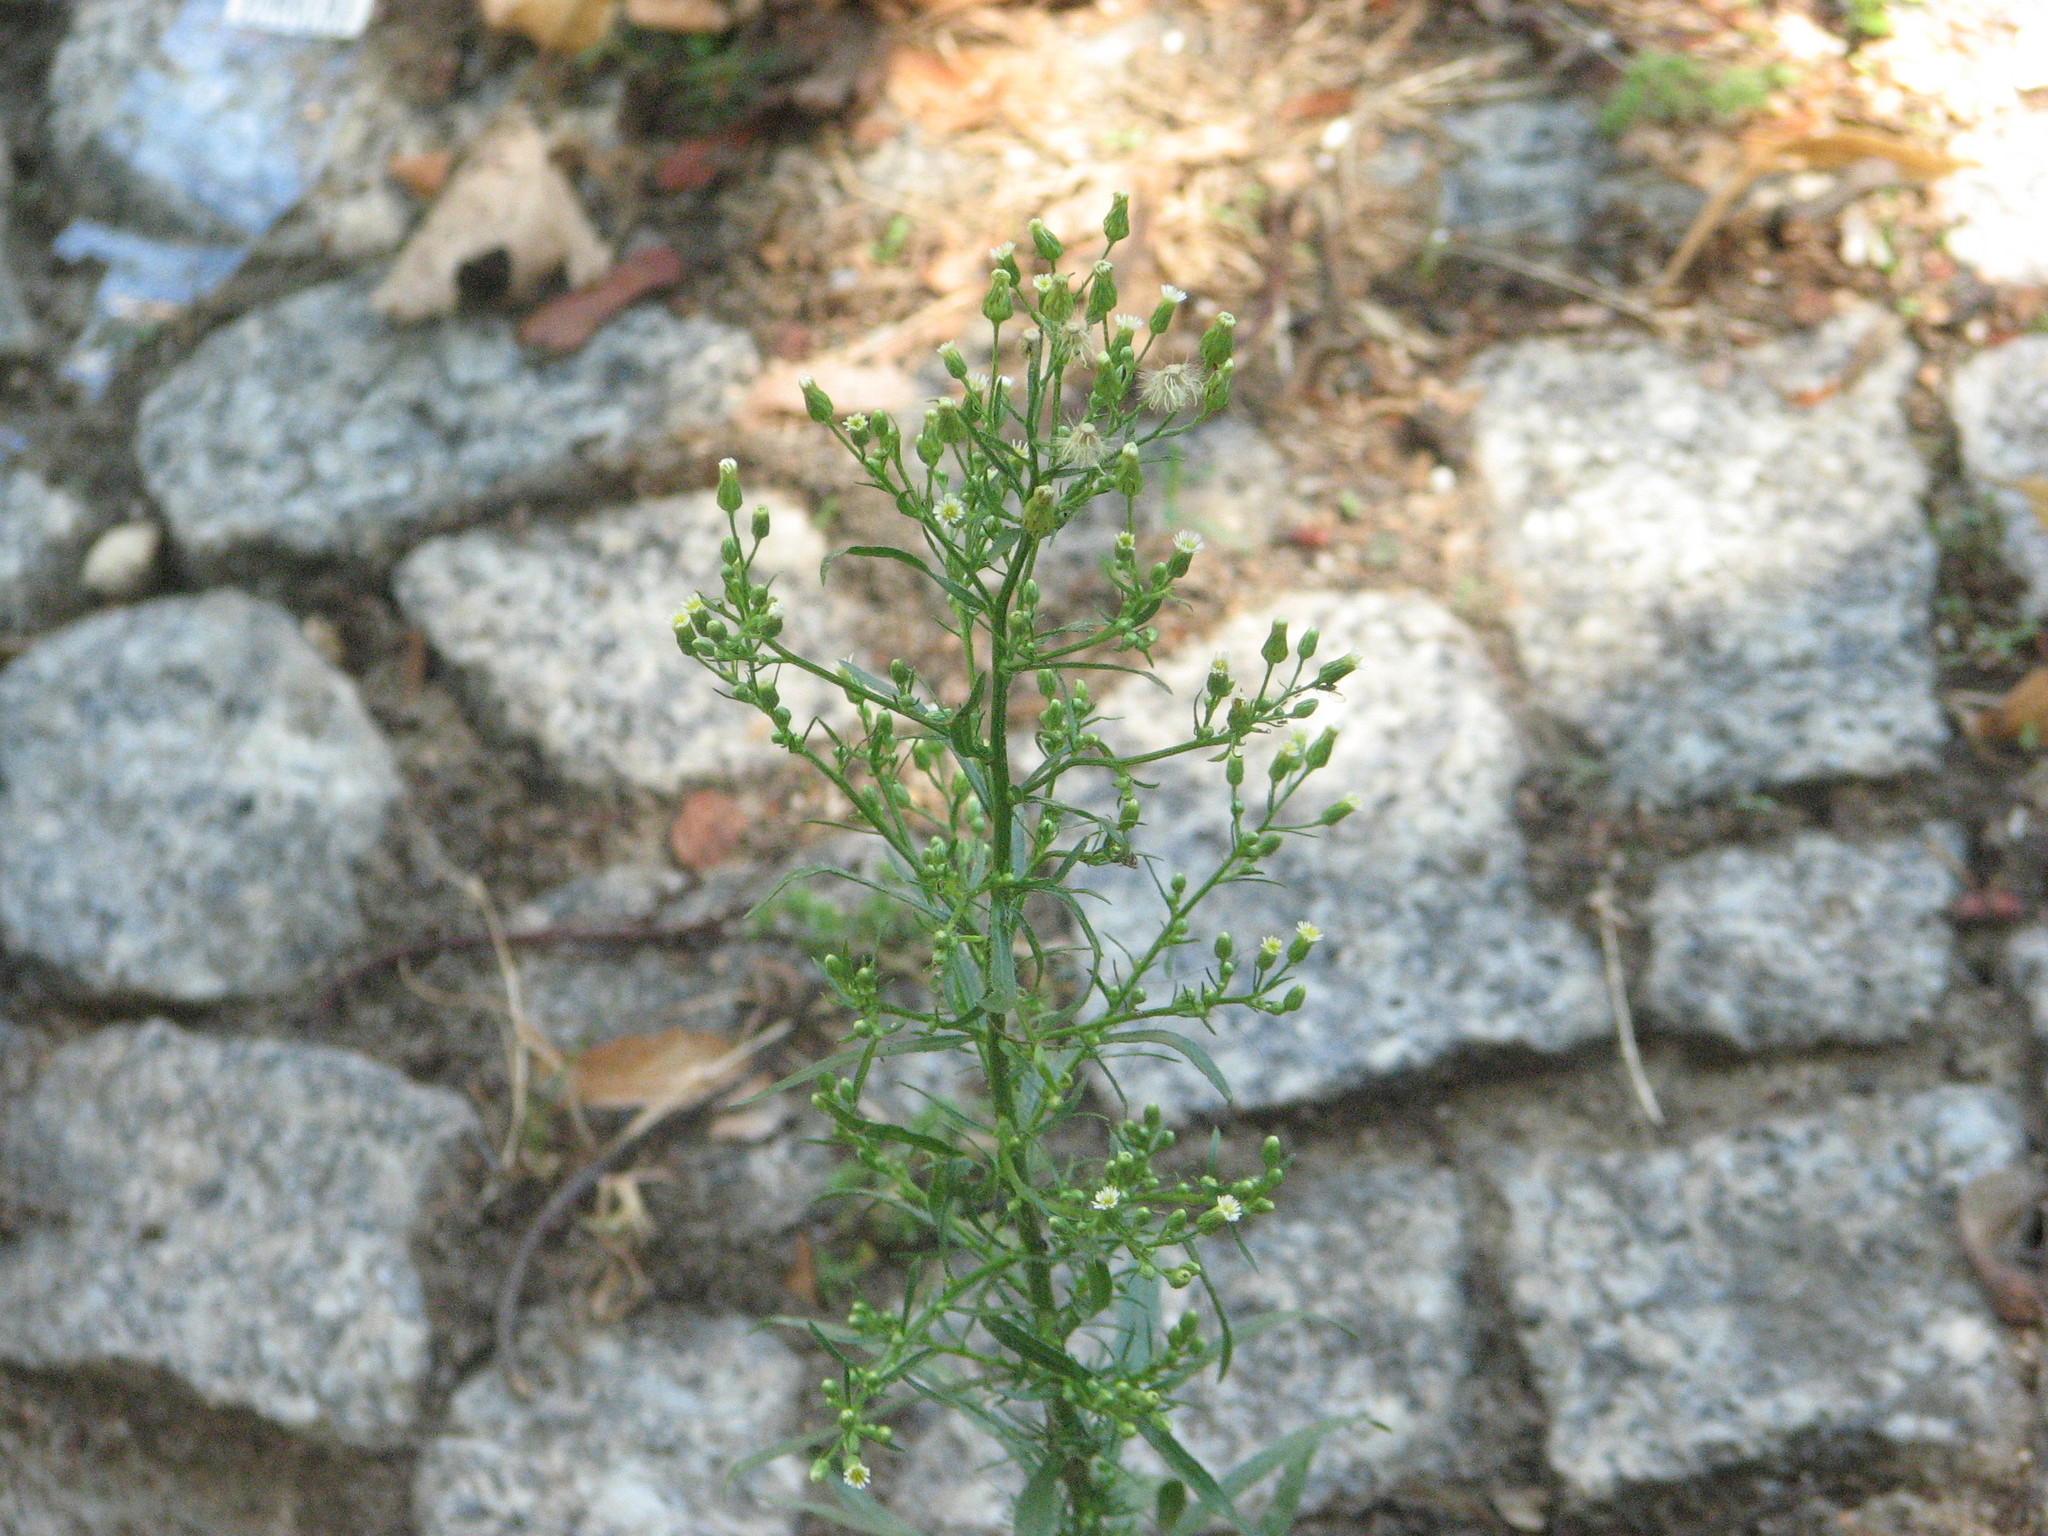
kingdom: Plantae
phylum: Tracheophyta
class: Magnoliopsida
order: Asterales
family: Asteraceae
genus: Erigeron
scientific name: Erigeron canadensis
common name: Canadian fleabane
